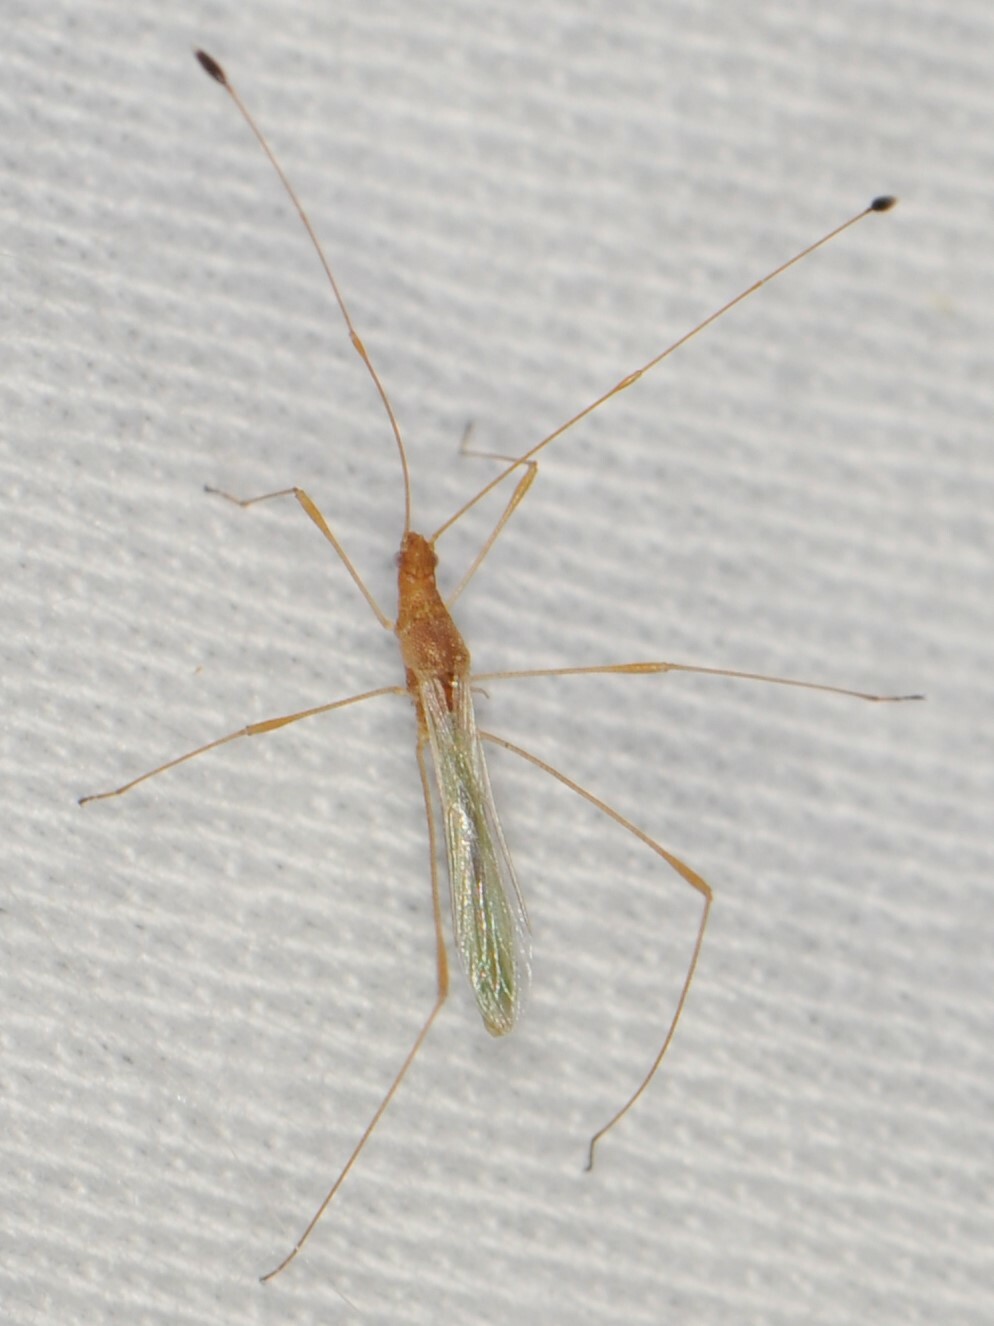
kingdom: Animalia
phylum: Arthropoda
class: Insecta
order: Hemiptera
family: Berytidae
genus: Metacanthus
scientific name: Metacanthus multispinus
